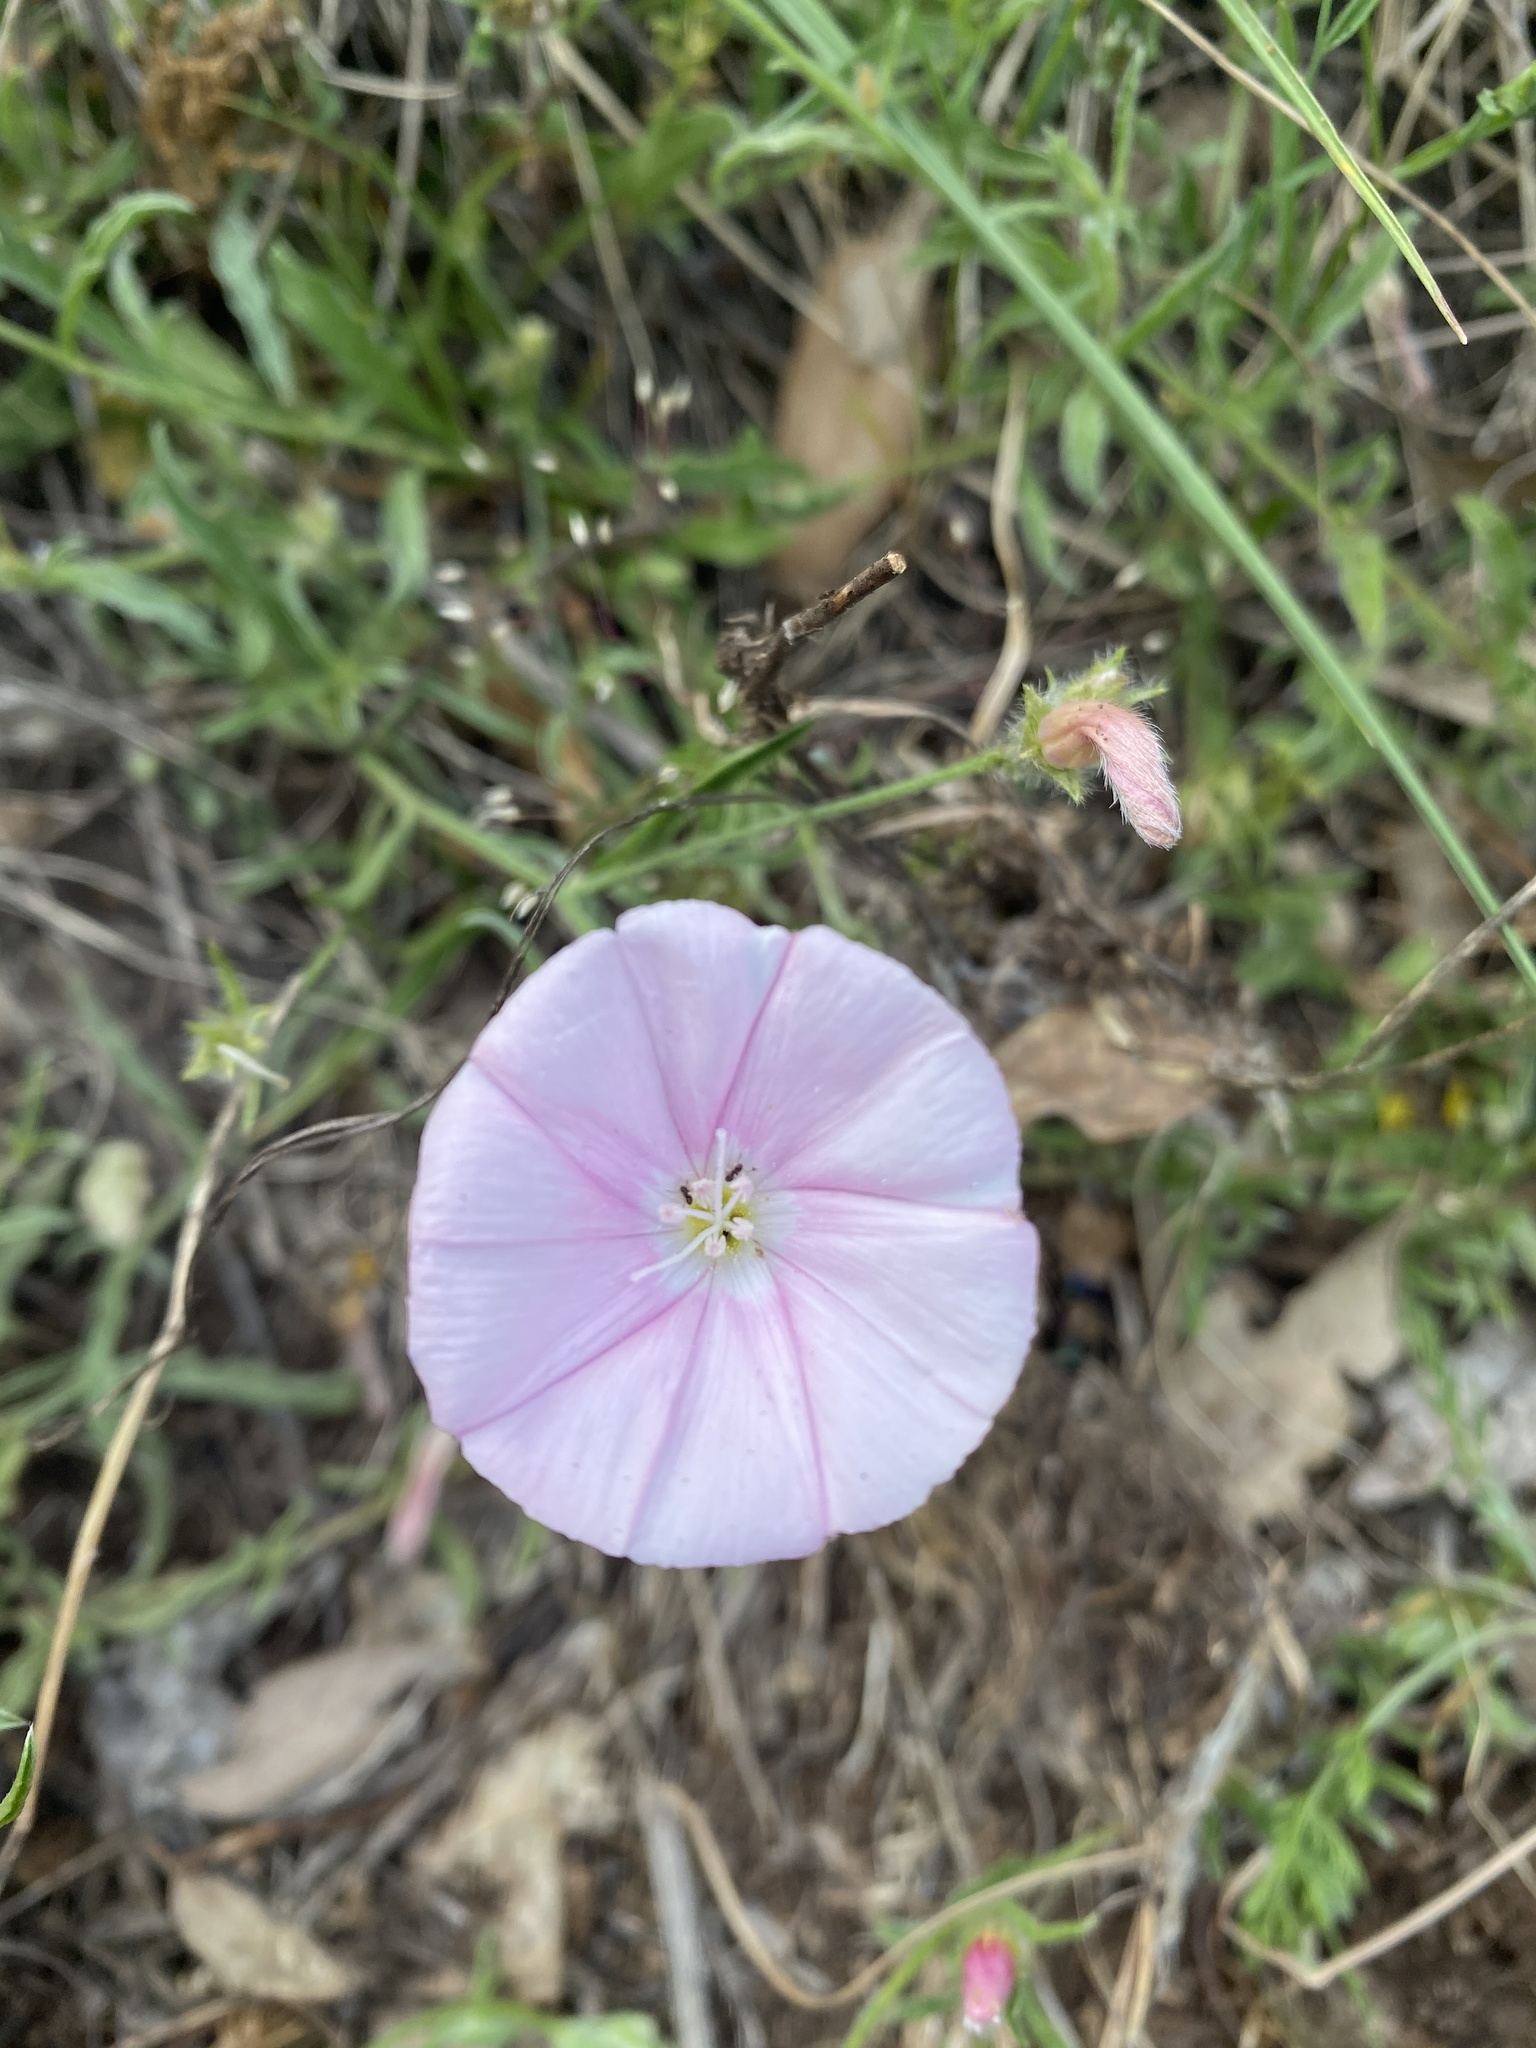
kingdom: Plantae
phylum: Tracheophyta
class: Magnoliopsida
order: Solanales
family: Convolvulaceae
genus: Convolvulus
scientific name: Convolvulus cantabrica
